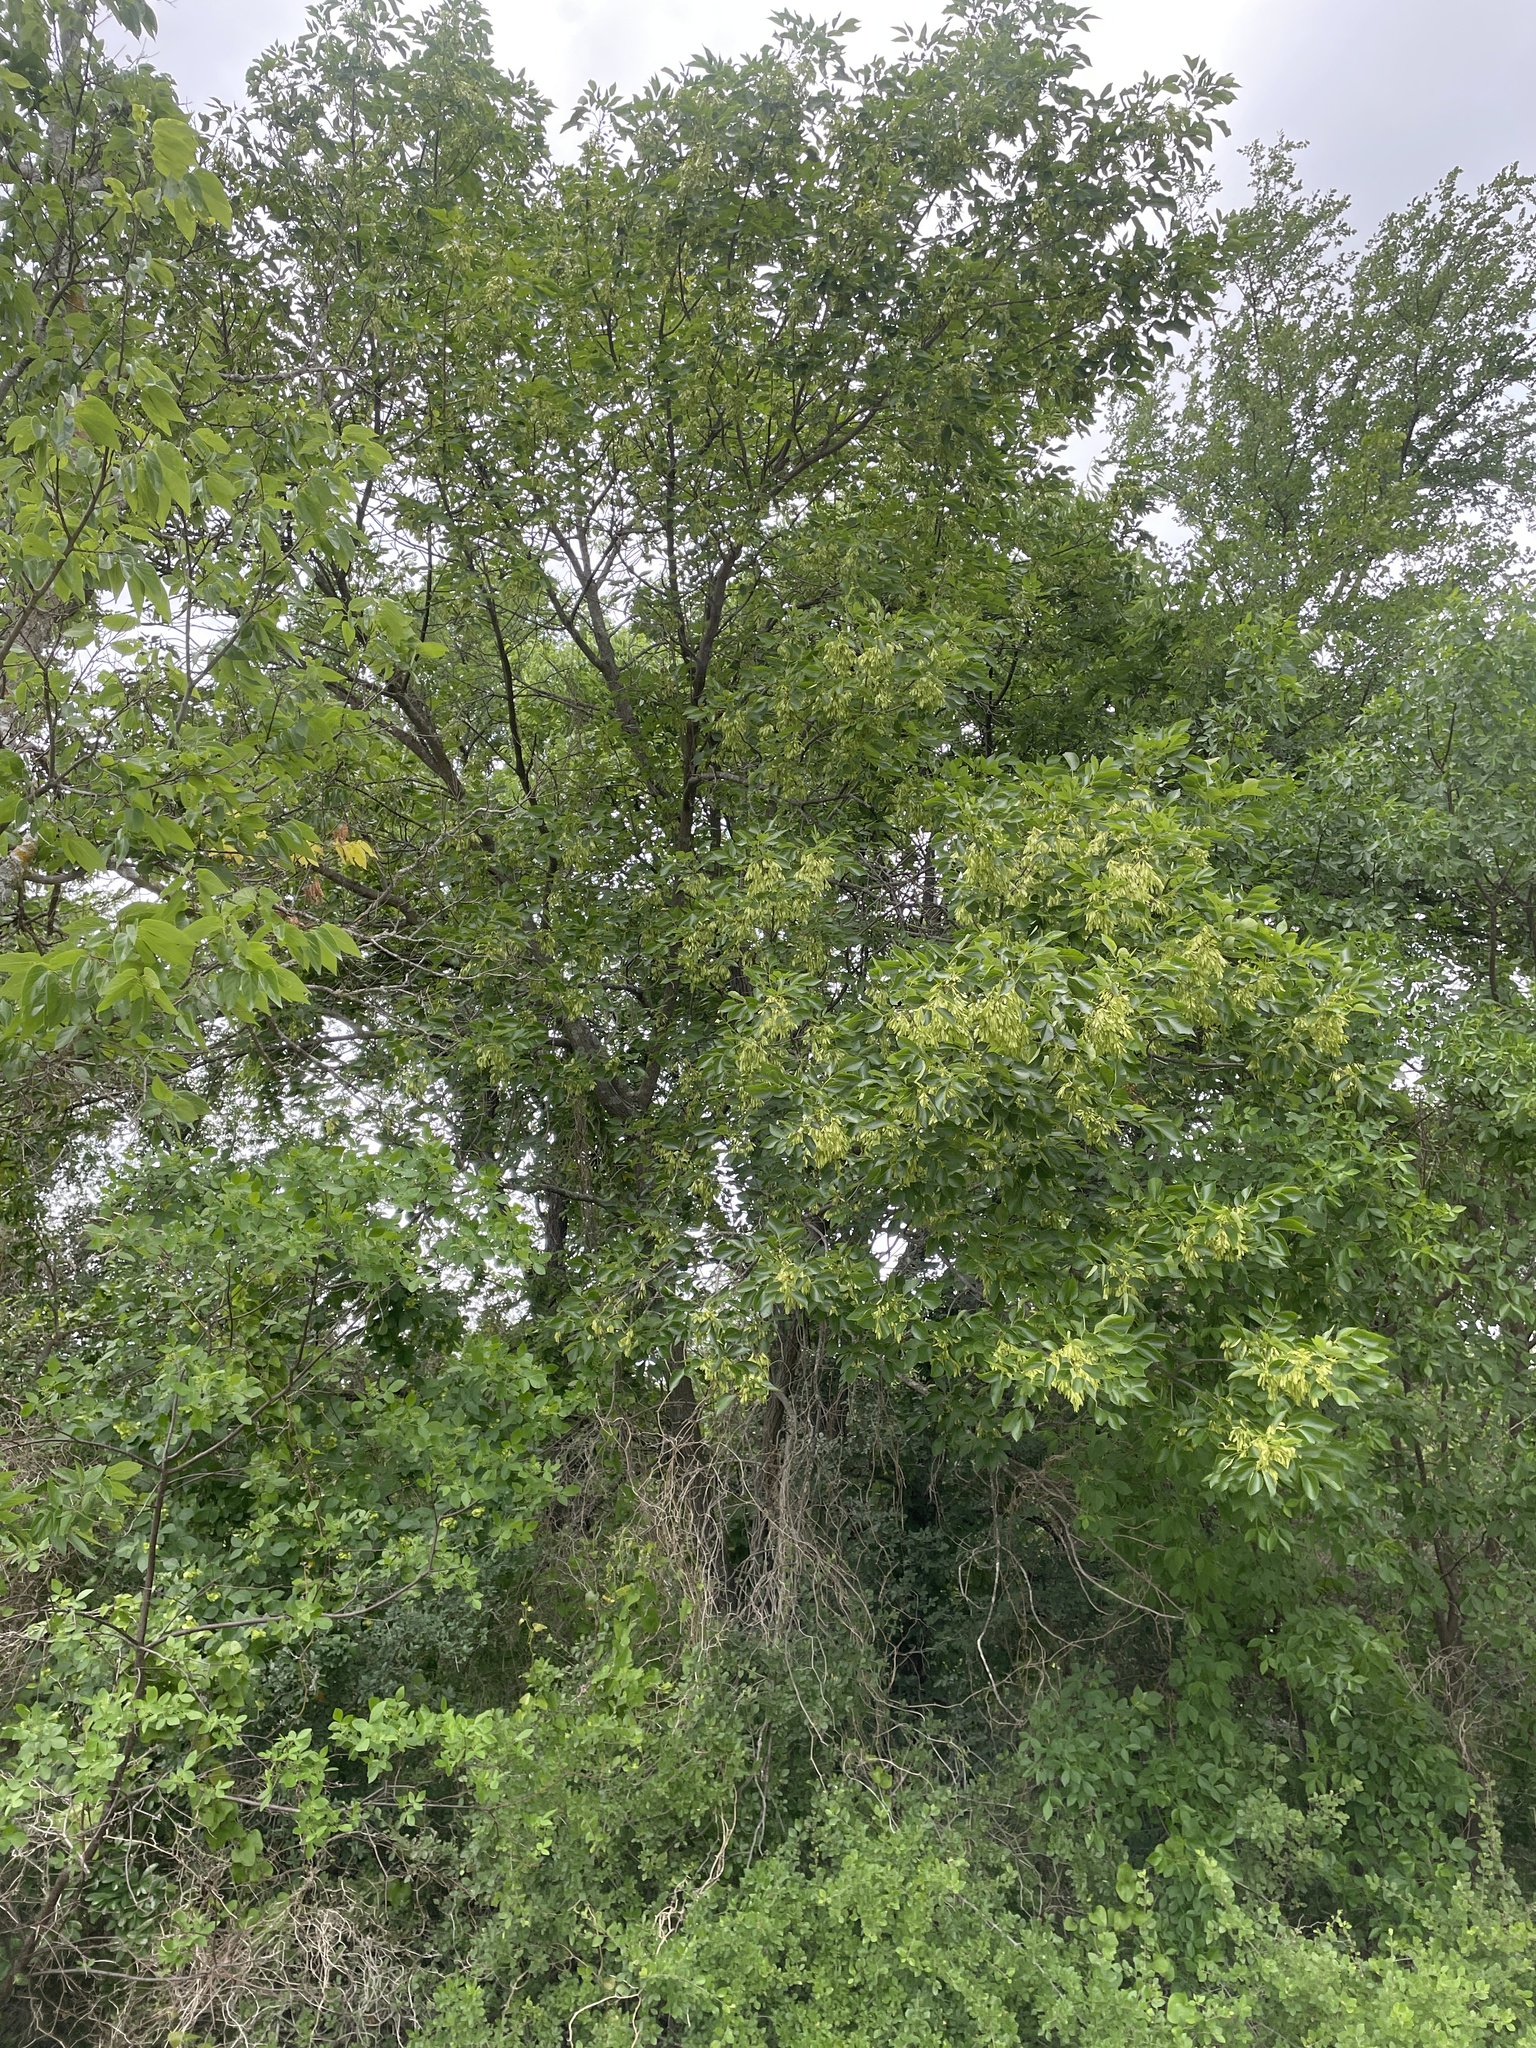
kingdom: Plantae
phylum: Tracheophyta
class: Magnoliopsida
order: Lamiales
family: Oleaceae
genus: Fraxinus
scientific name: Fraxinus albicans
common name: Texas ash
